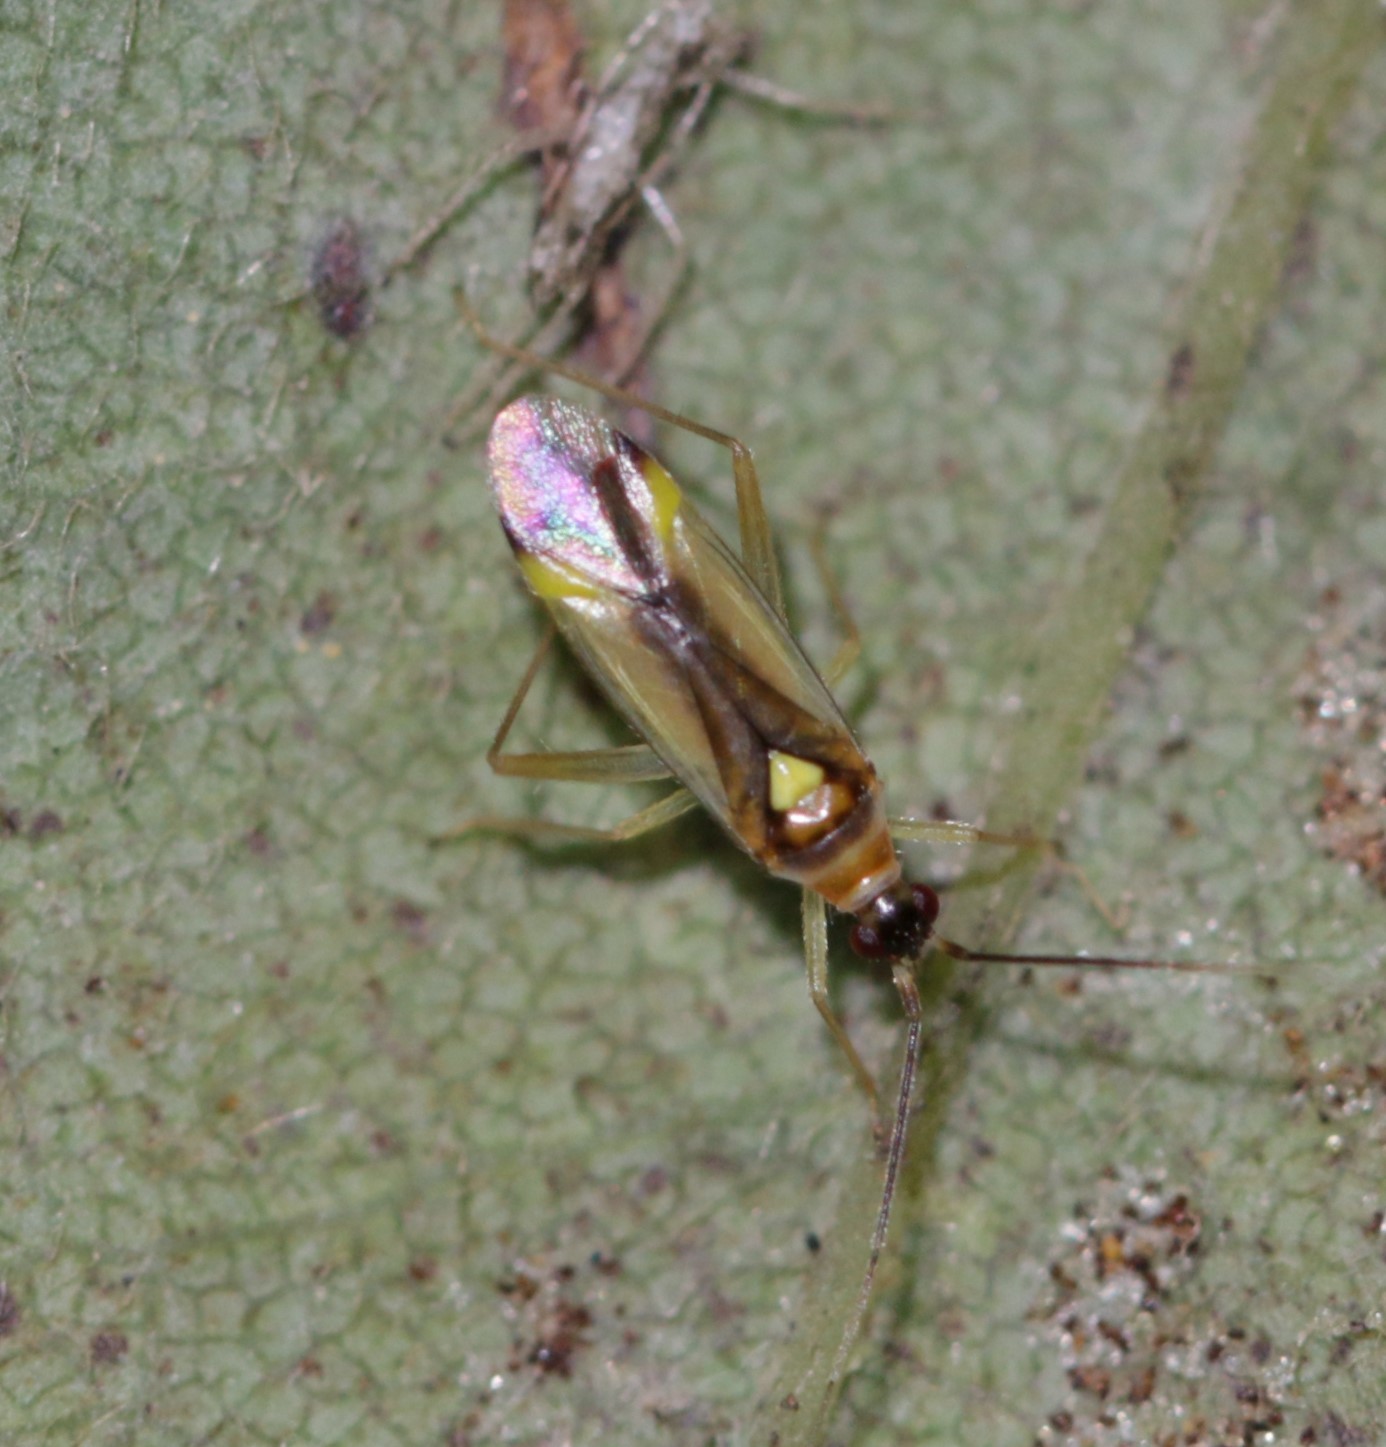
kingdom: Animalia
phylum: Arthropoda
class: Insecta
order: Hemiptera
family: Miridae
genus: Campyloneura
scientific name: Campyloneura virgula
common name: Predatory bug
